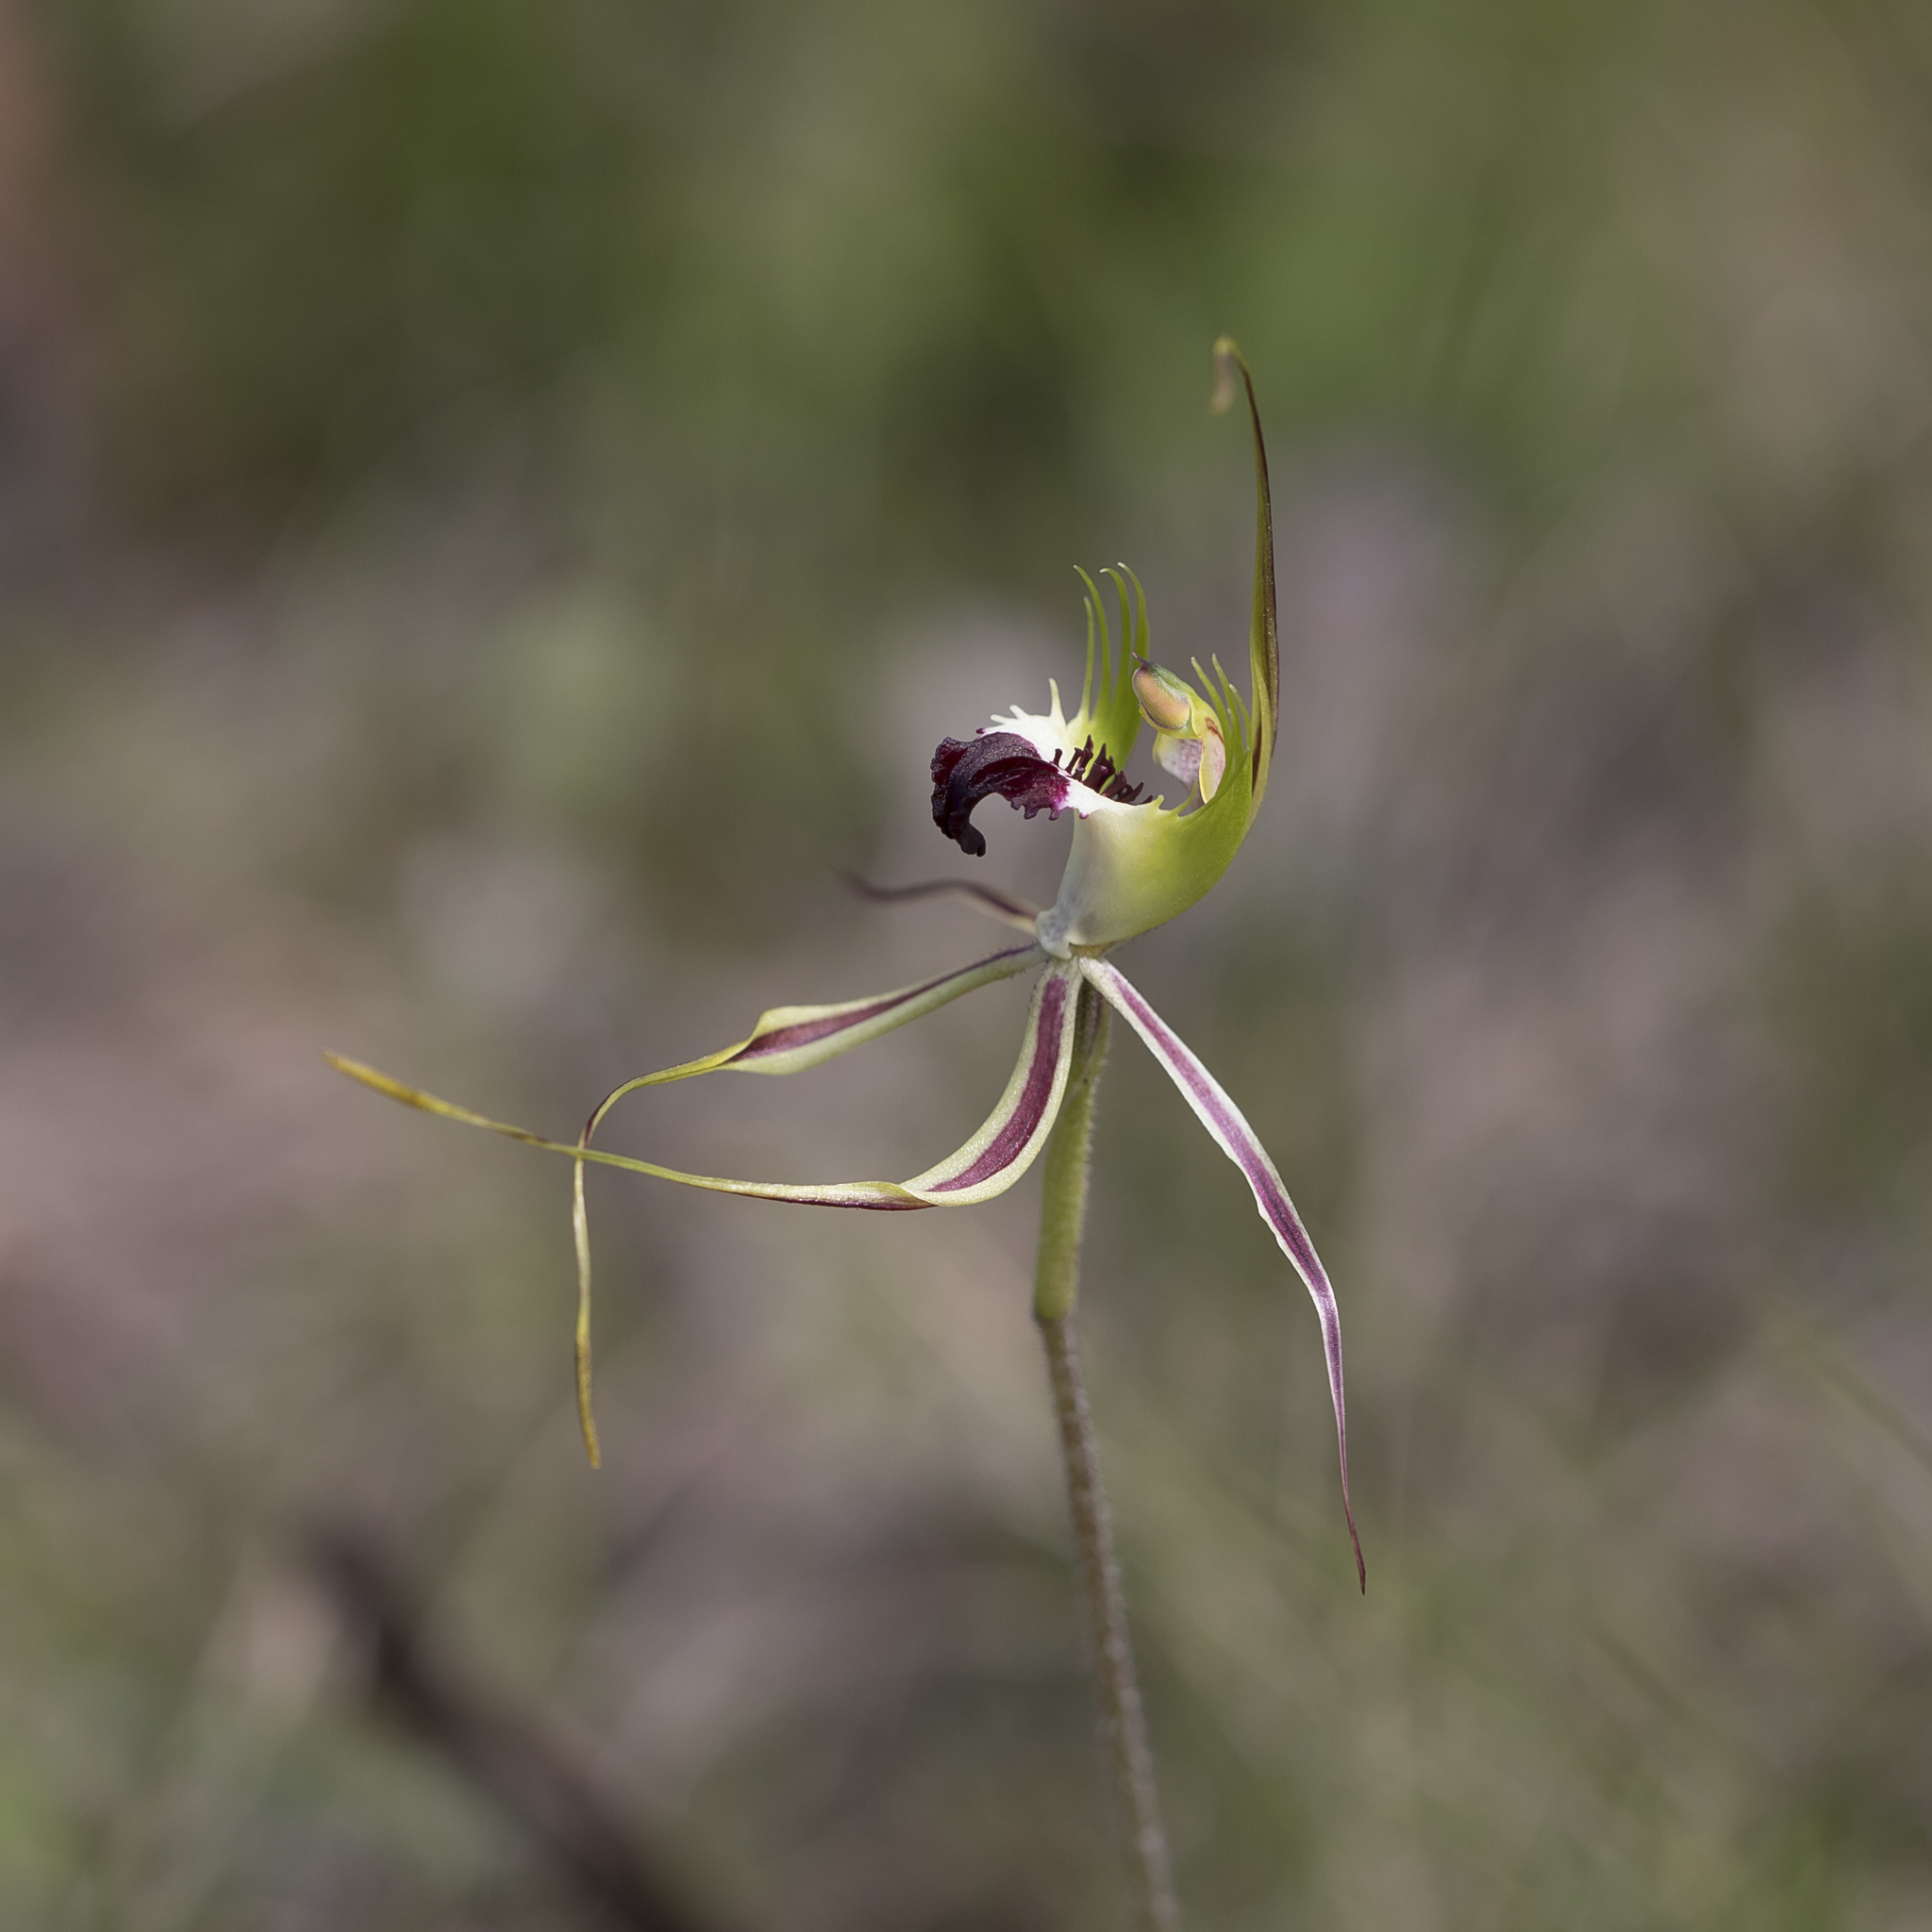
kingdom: Plantae
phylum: Tracheophyta
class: Liliopsida
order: Asparagales
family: Orchidaceae
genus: Caladenia
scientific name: Caladenia tentaculata
